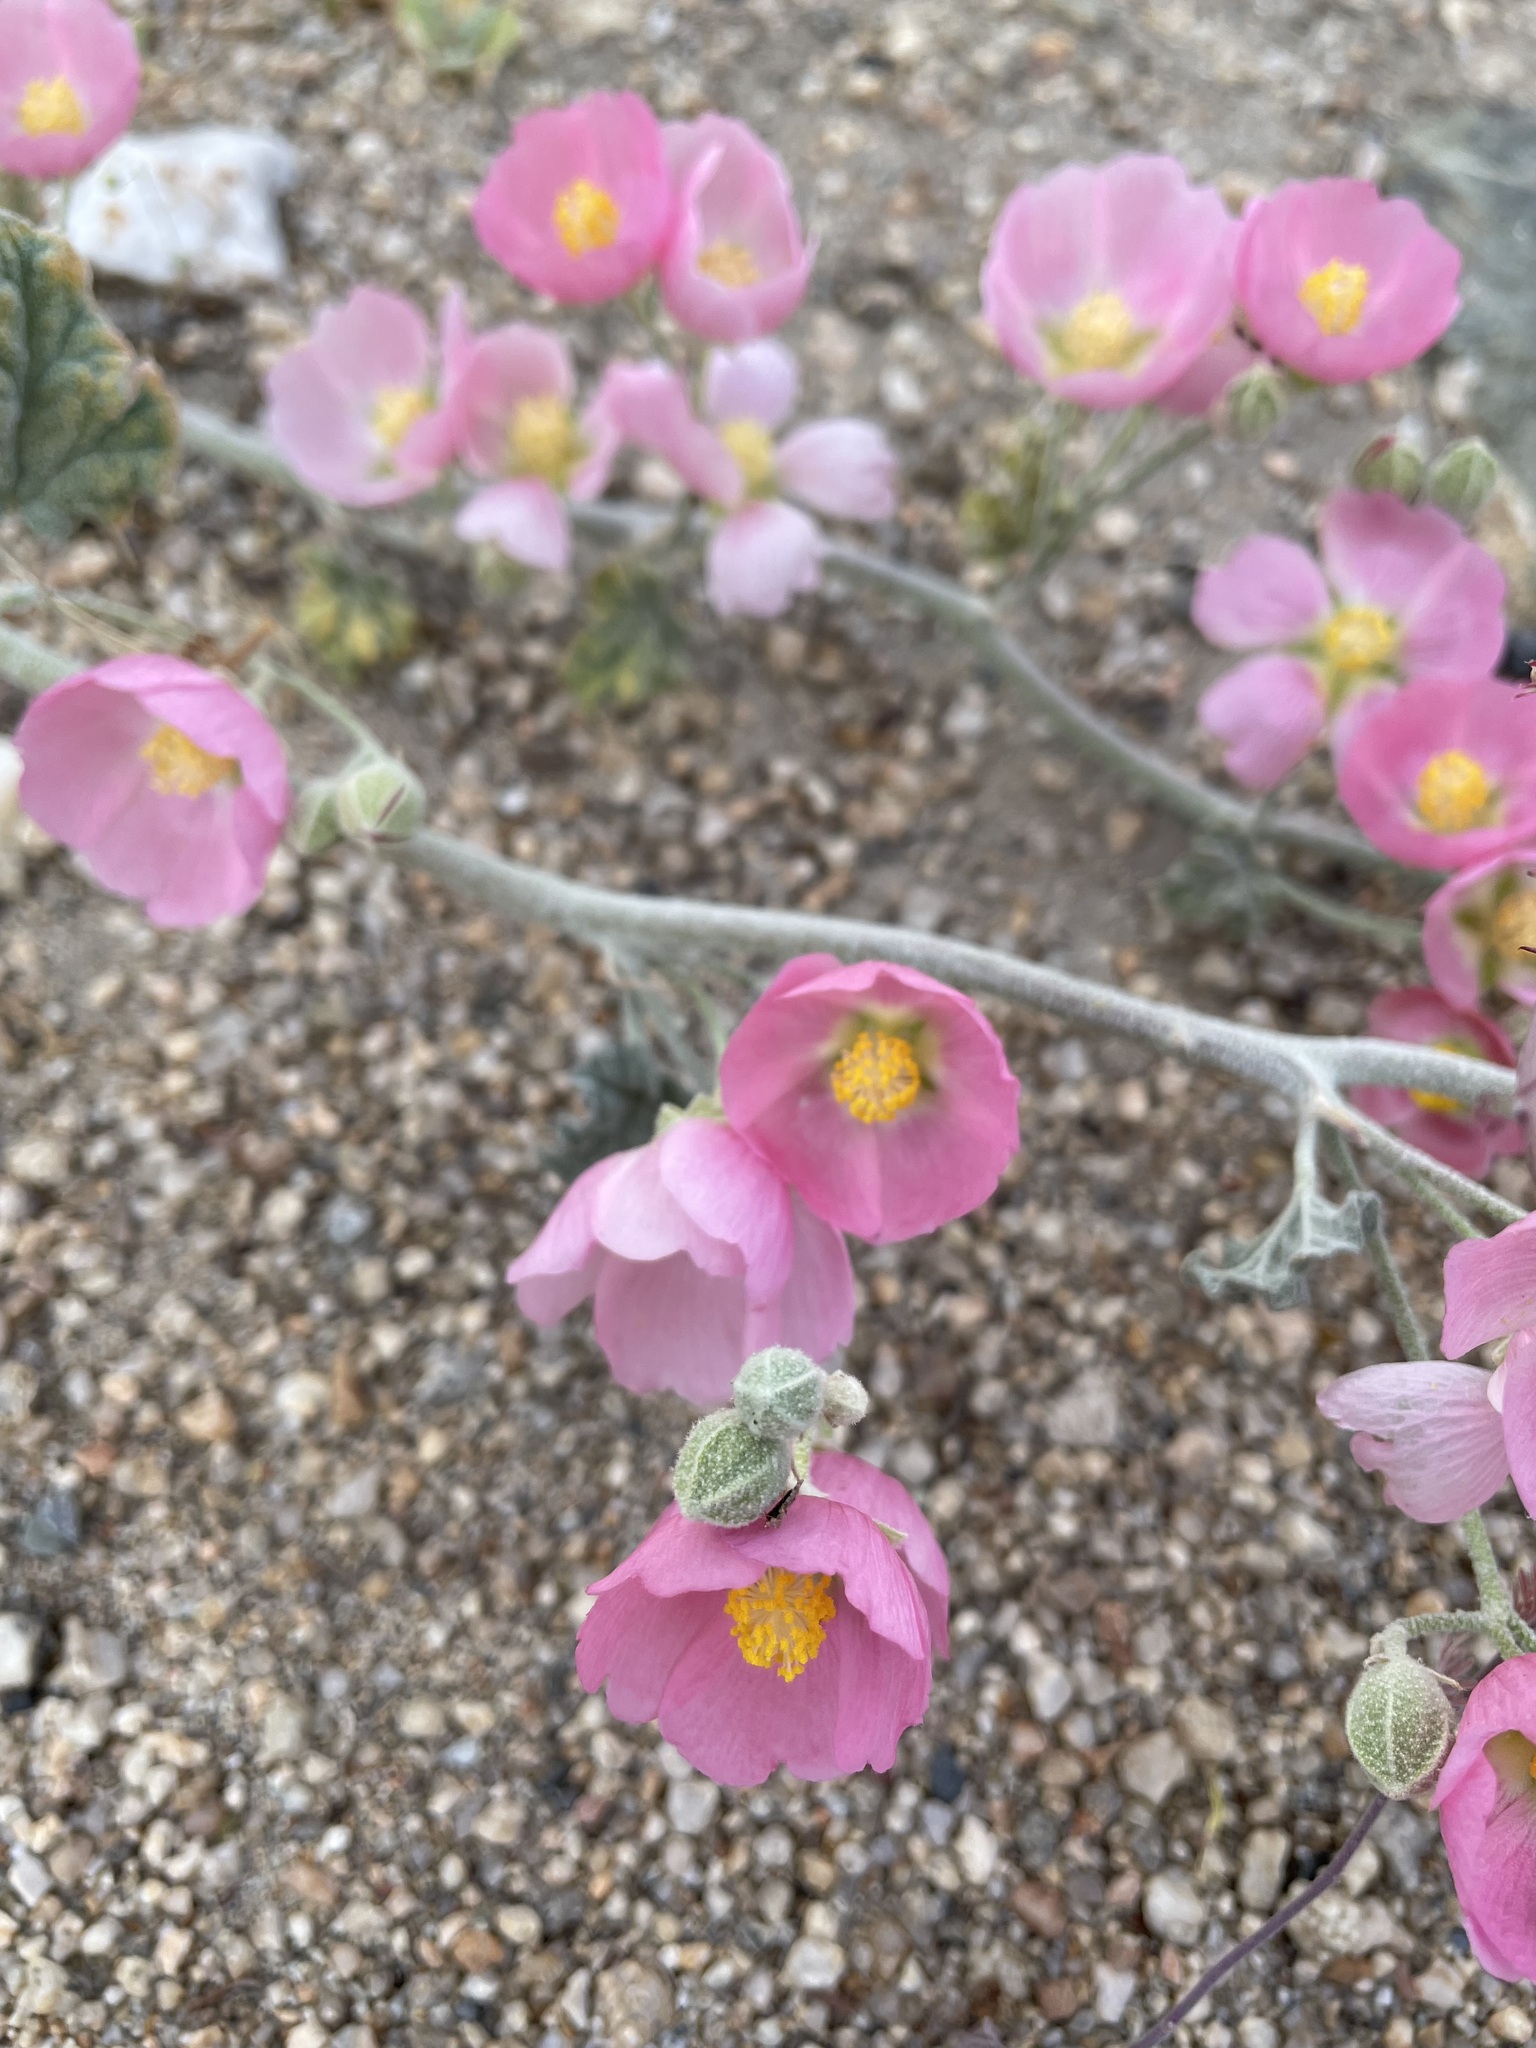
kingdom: Plantae
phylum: Tracheophyta
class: Magnoliopsida
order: Malvales
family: Malvaceae
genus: Sphaeralcea
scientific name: Sphaeralcea ambigua
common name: Apricot globe-mallow
